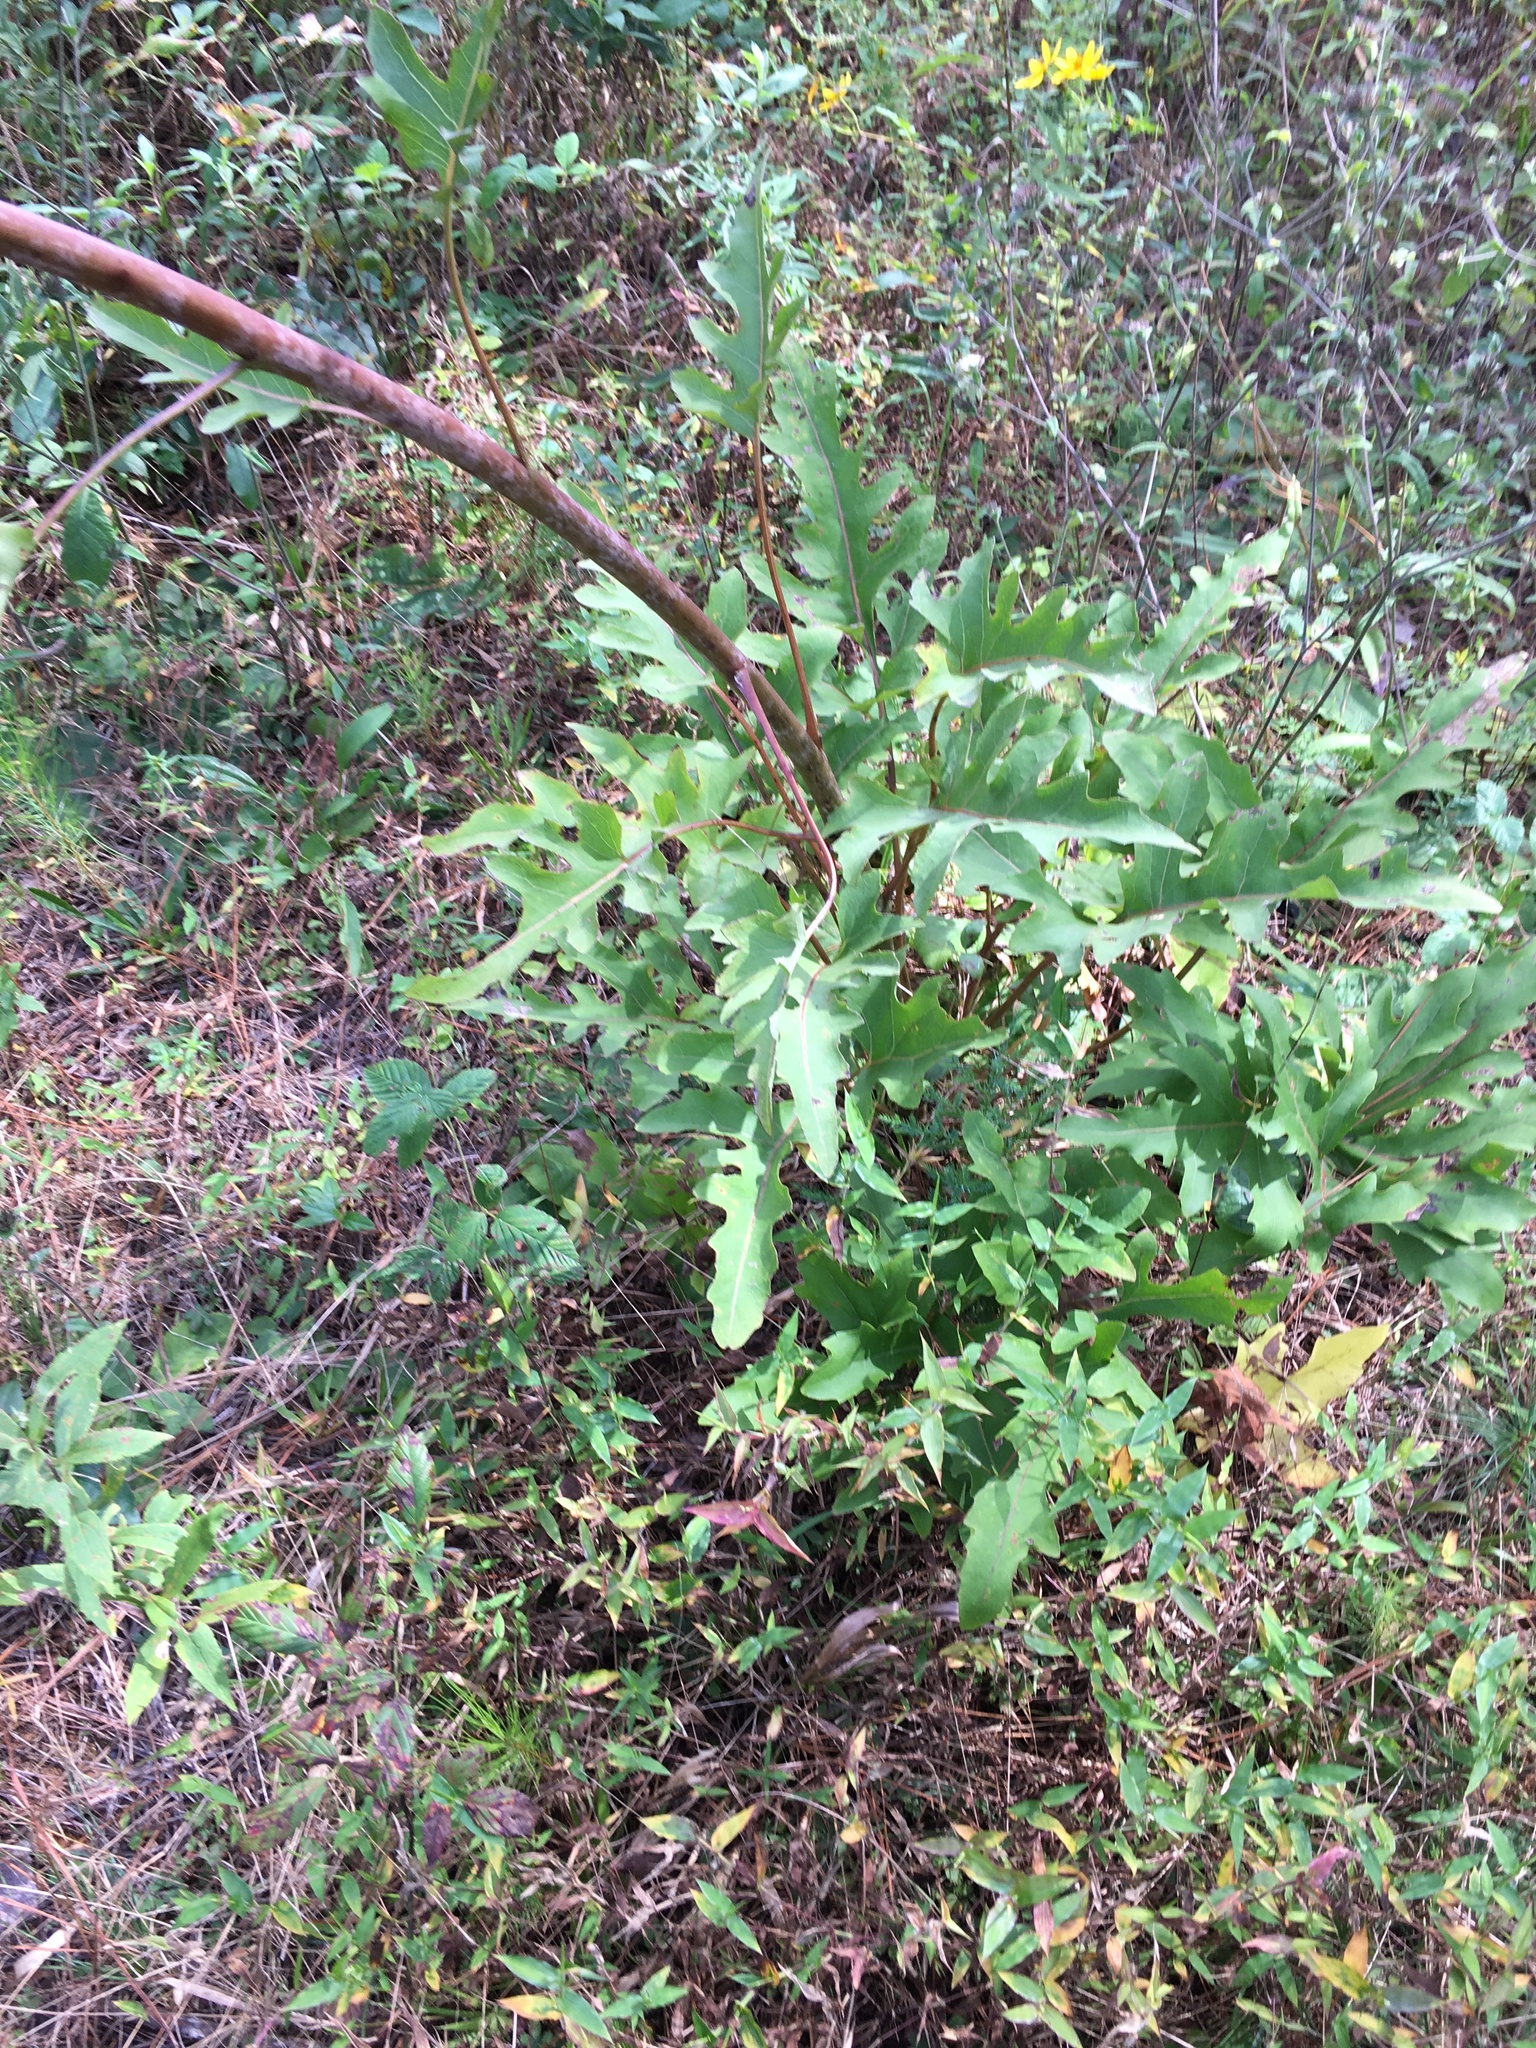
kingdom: Plantae
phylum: Tracheophyta
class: Magnoliopsida
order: Asterales
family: Asteraceae
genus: Silphium
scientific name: Silphium compositum
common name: Lesser basal-leaf rosinweed
